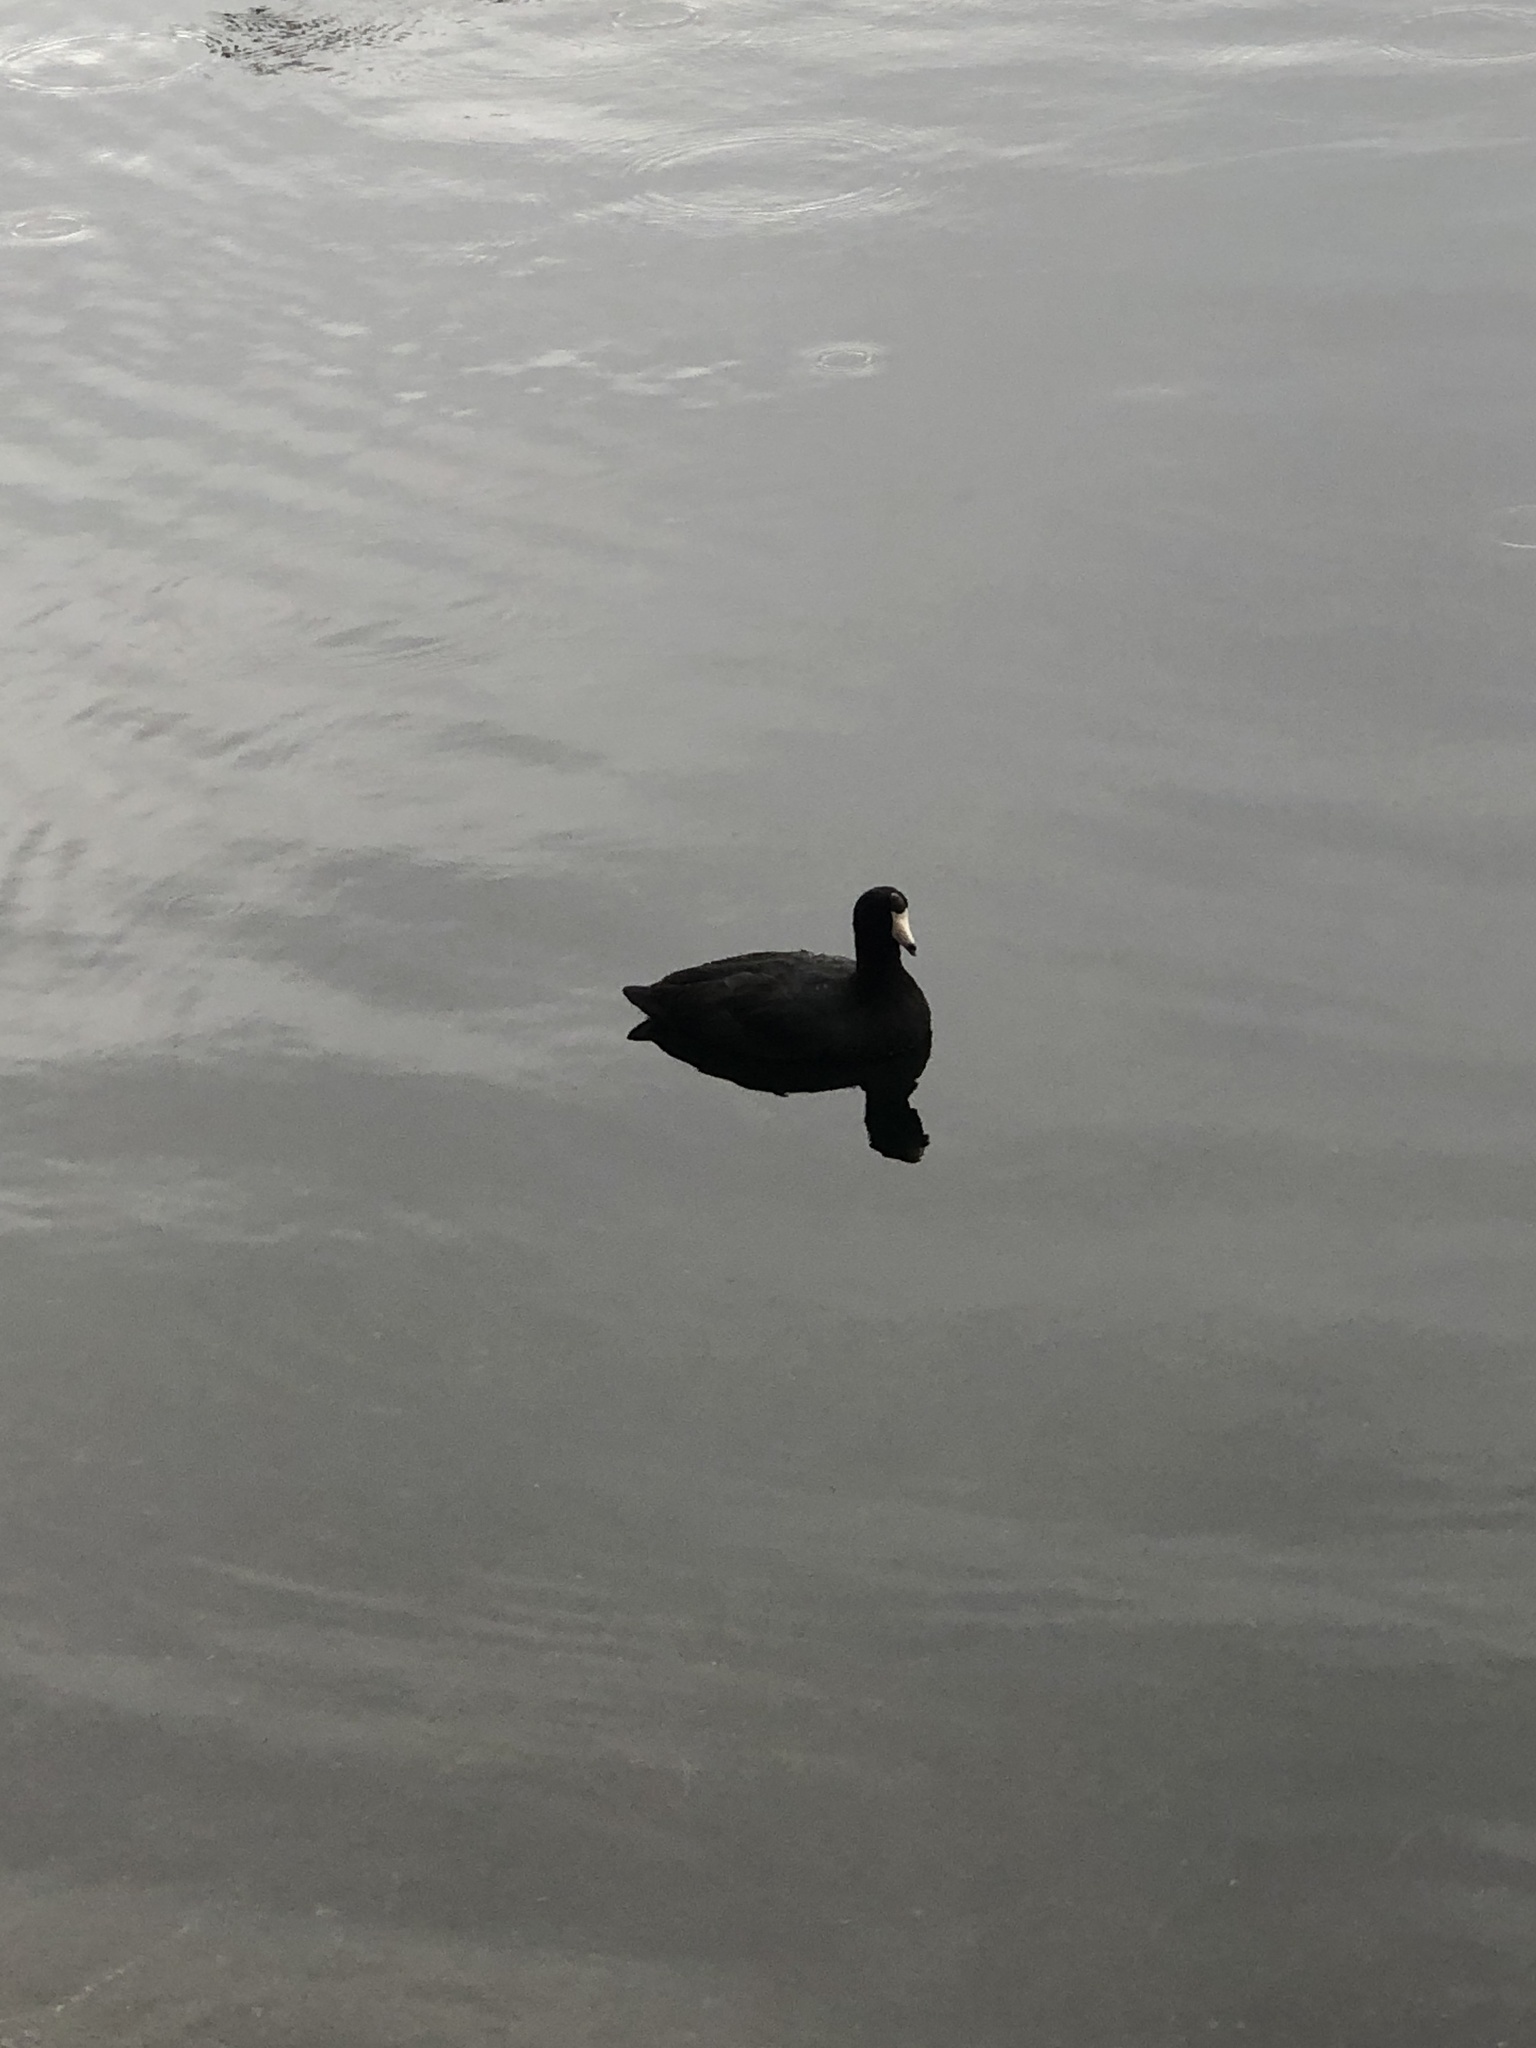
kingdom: Animalia
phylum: Chordata
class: Aves
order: Gruiformes
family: Rallidae
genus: Fulica
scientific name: Fulica americana
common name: American coot
